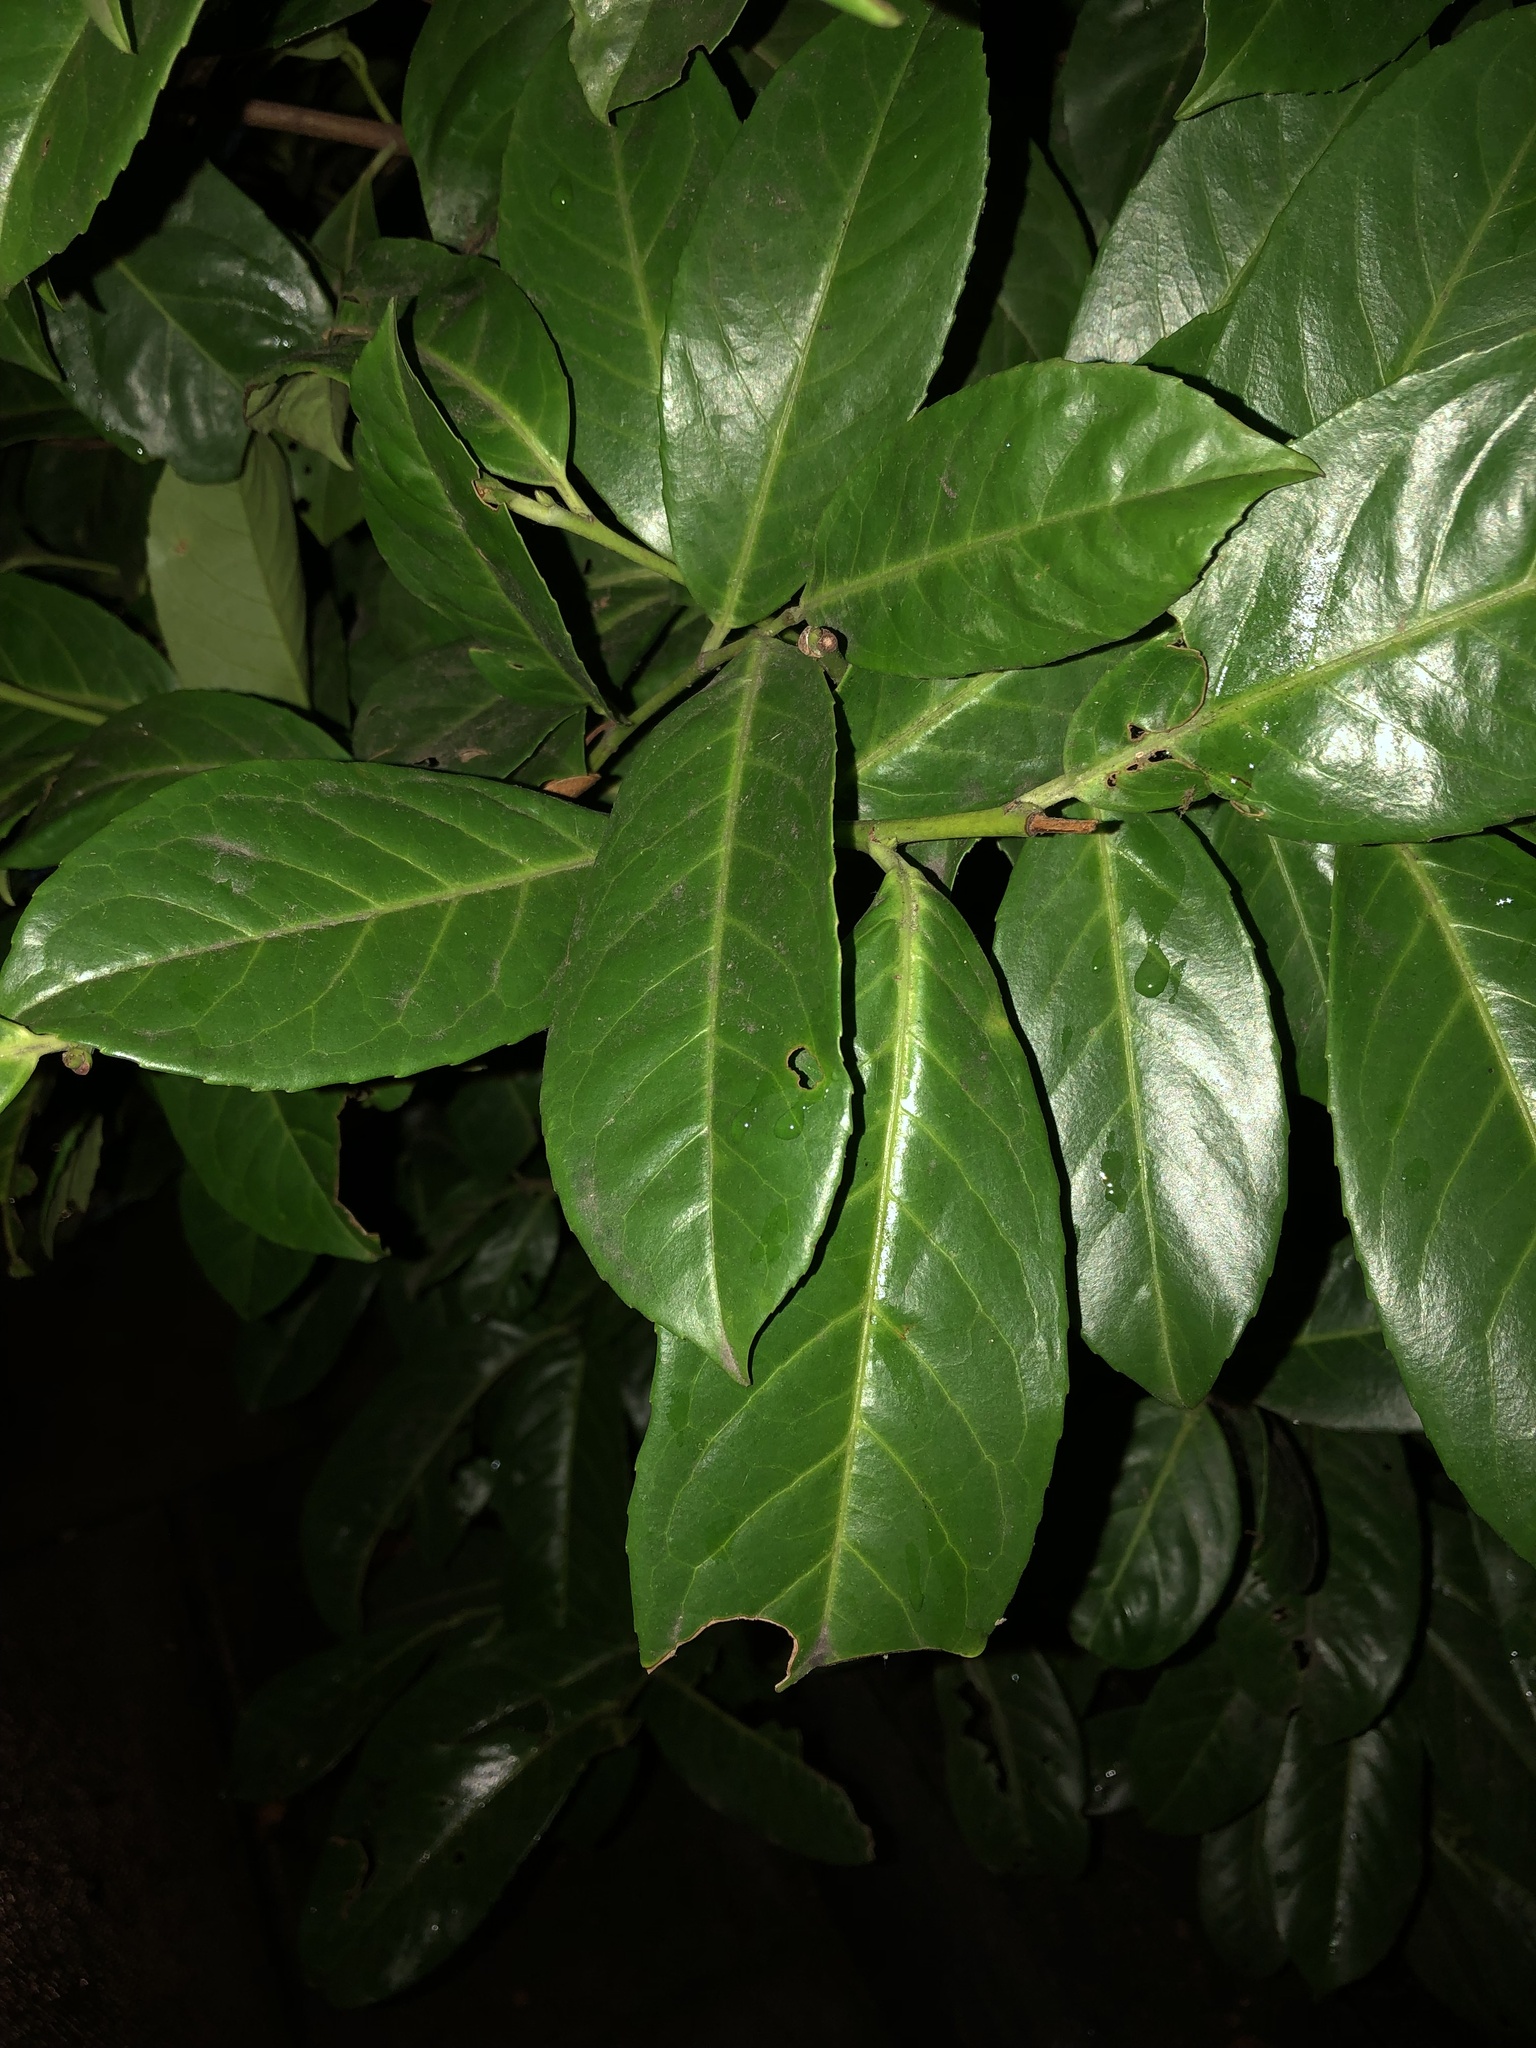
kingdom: Plantae
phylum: Tracheophyta
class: Magnoliopsida
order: Rosales
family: Rosaceae
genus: Prunus
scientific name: Prunus laurocerasus
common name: Cherry laurel
